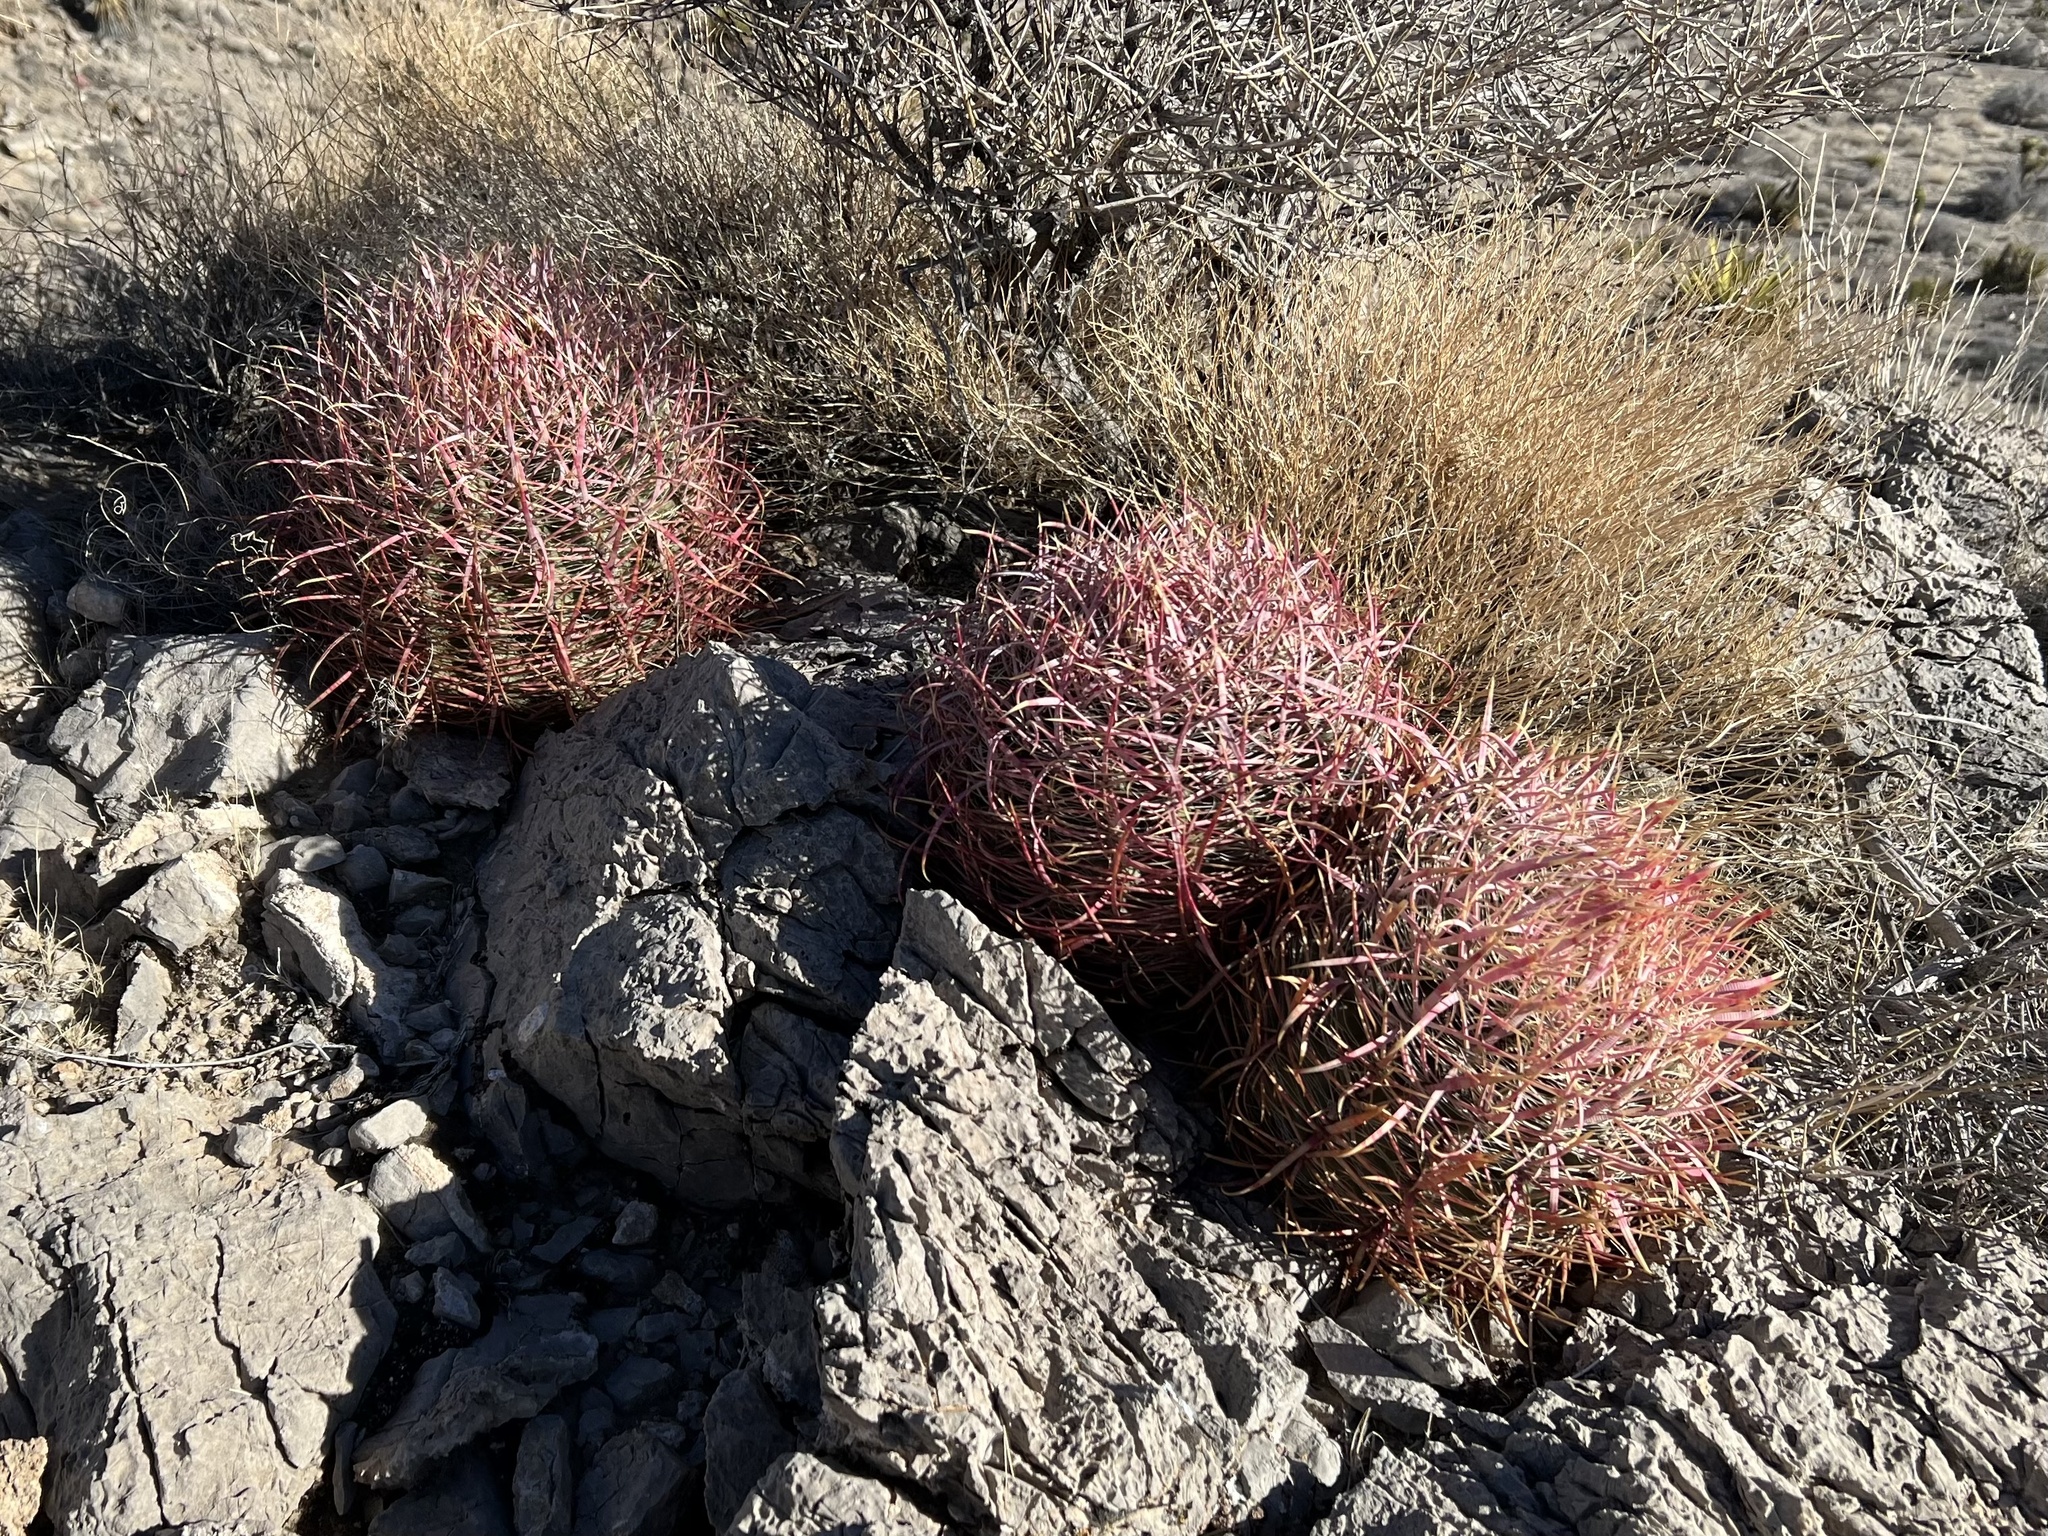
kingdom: Plantae
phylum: Tracheophyta
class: Magnoliopsida
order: Caryophyllales
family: Cactaceae
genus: Ferocactus
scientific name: Ferocactus cylindraceus
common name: California barrel cactus
